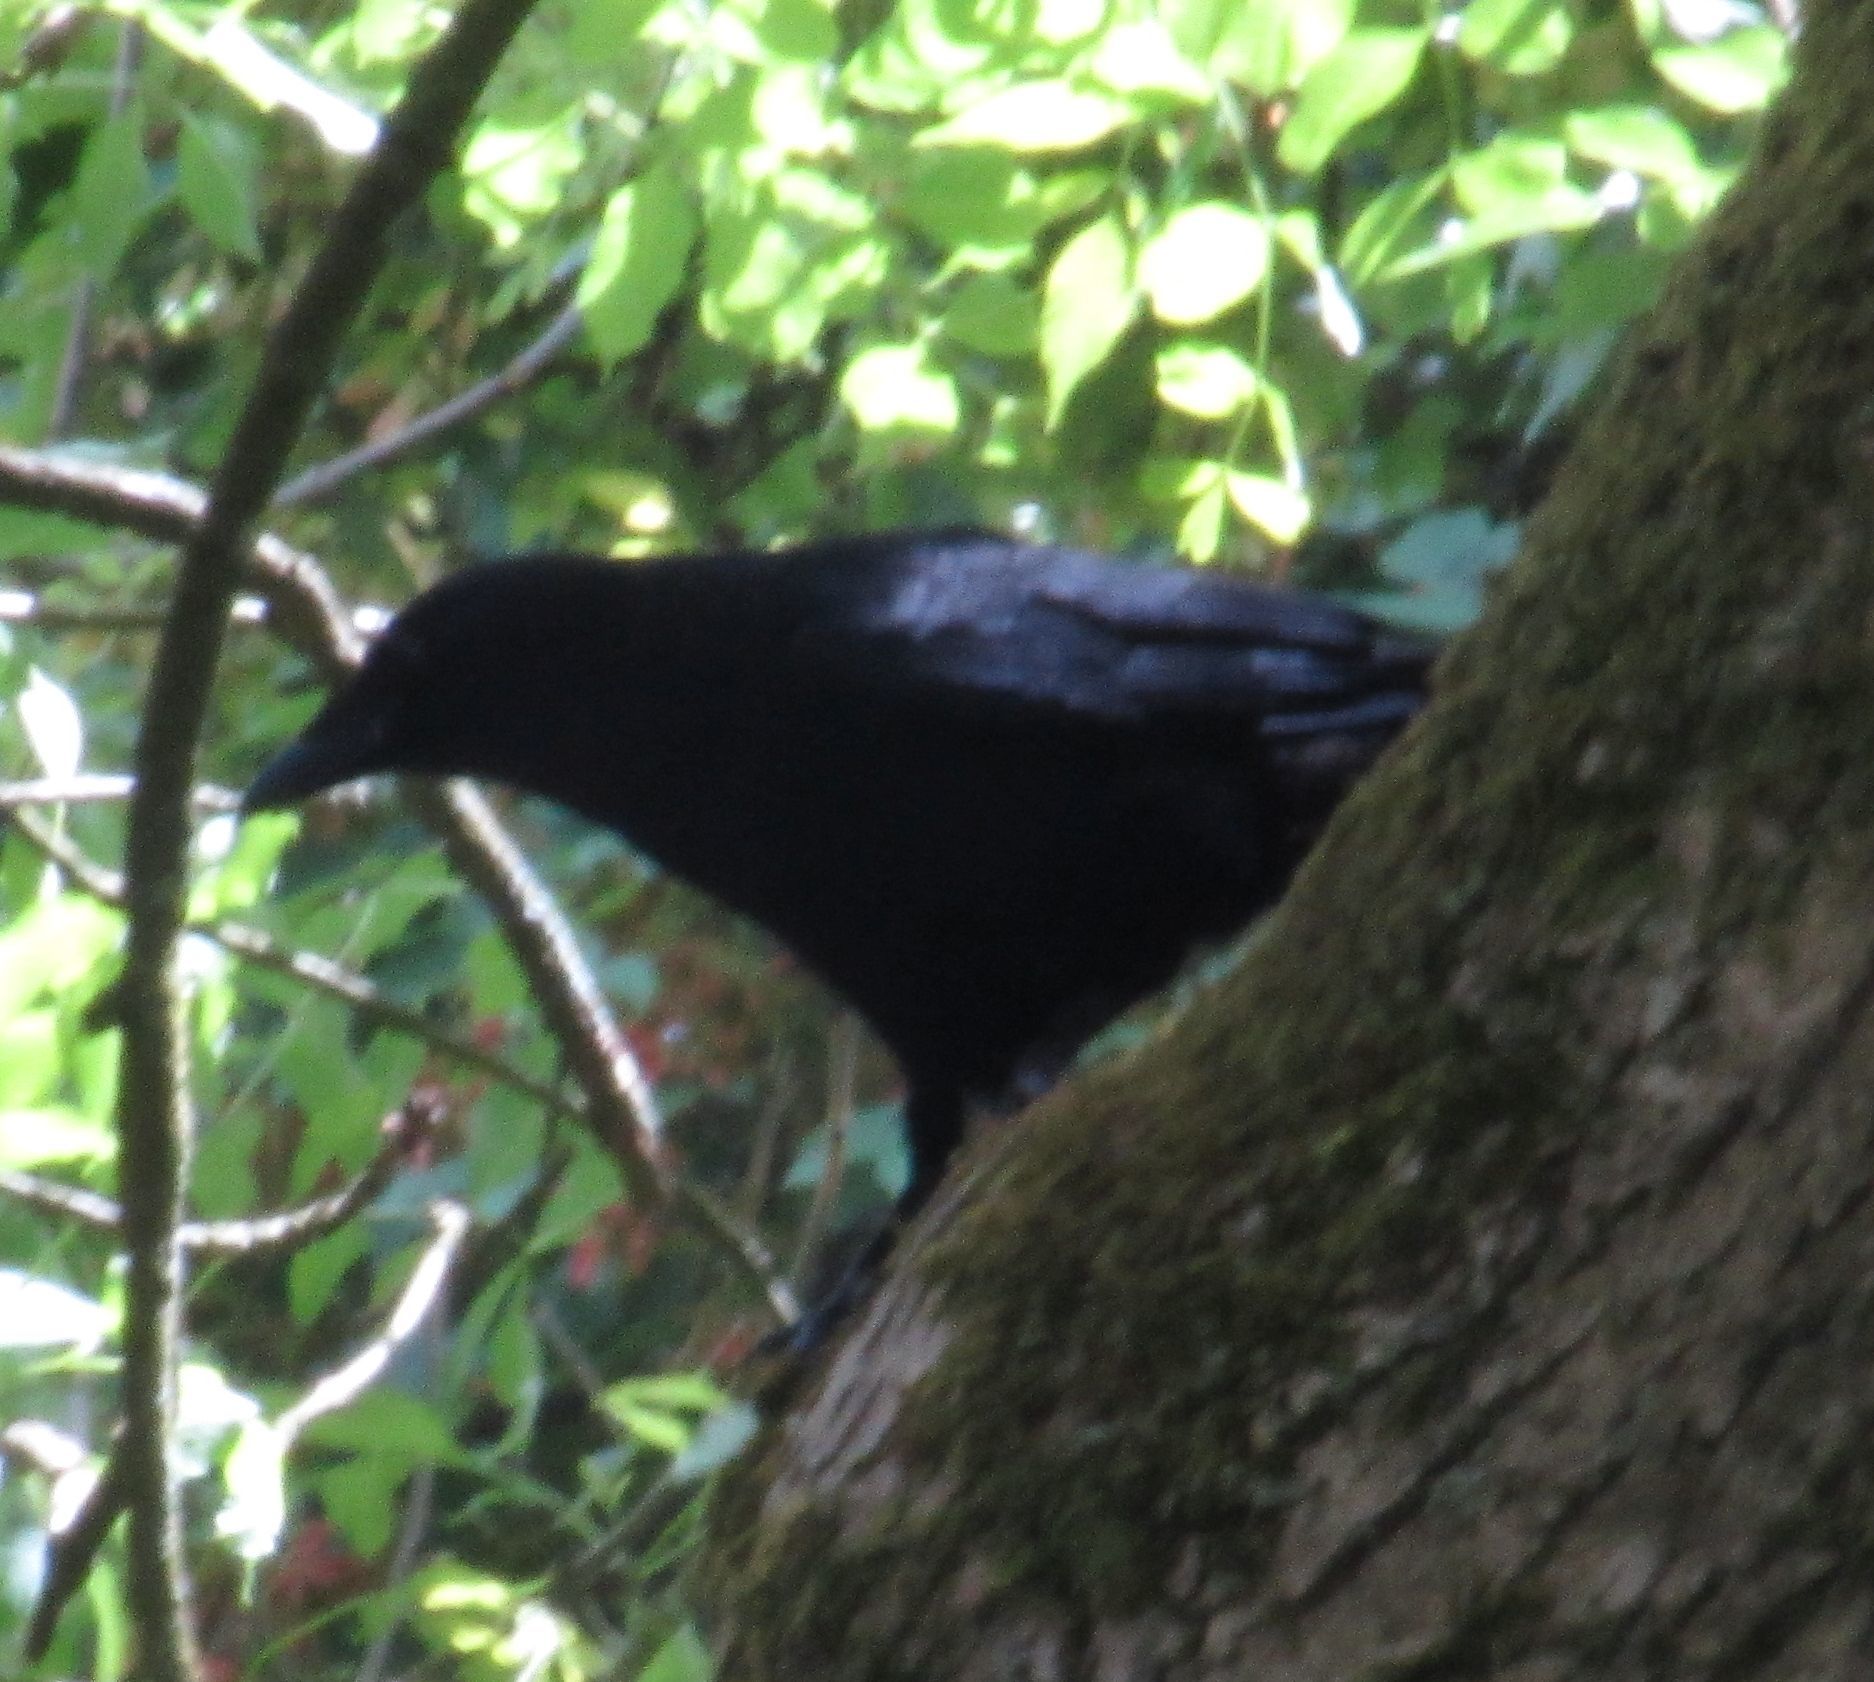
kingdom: Animalia
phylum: Chordata
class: Aves
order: Passeriformes
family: Corvidae
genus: Corvus
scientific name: Corvus corone
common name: Carrion crow
